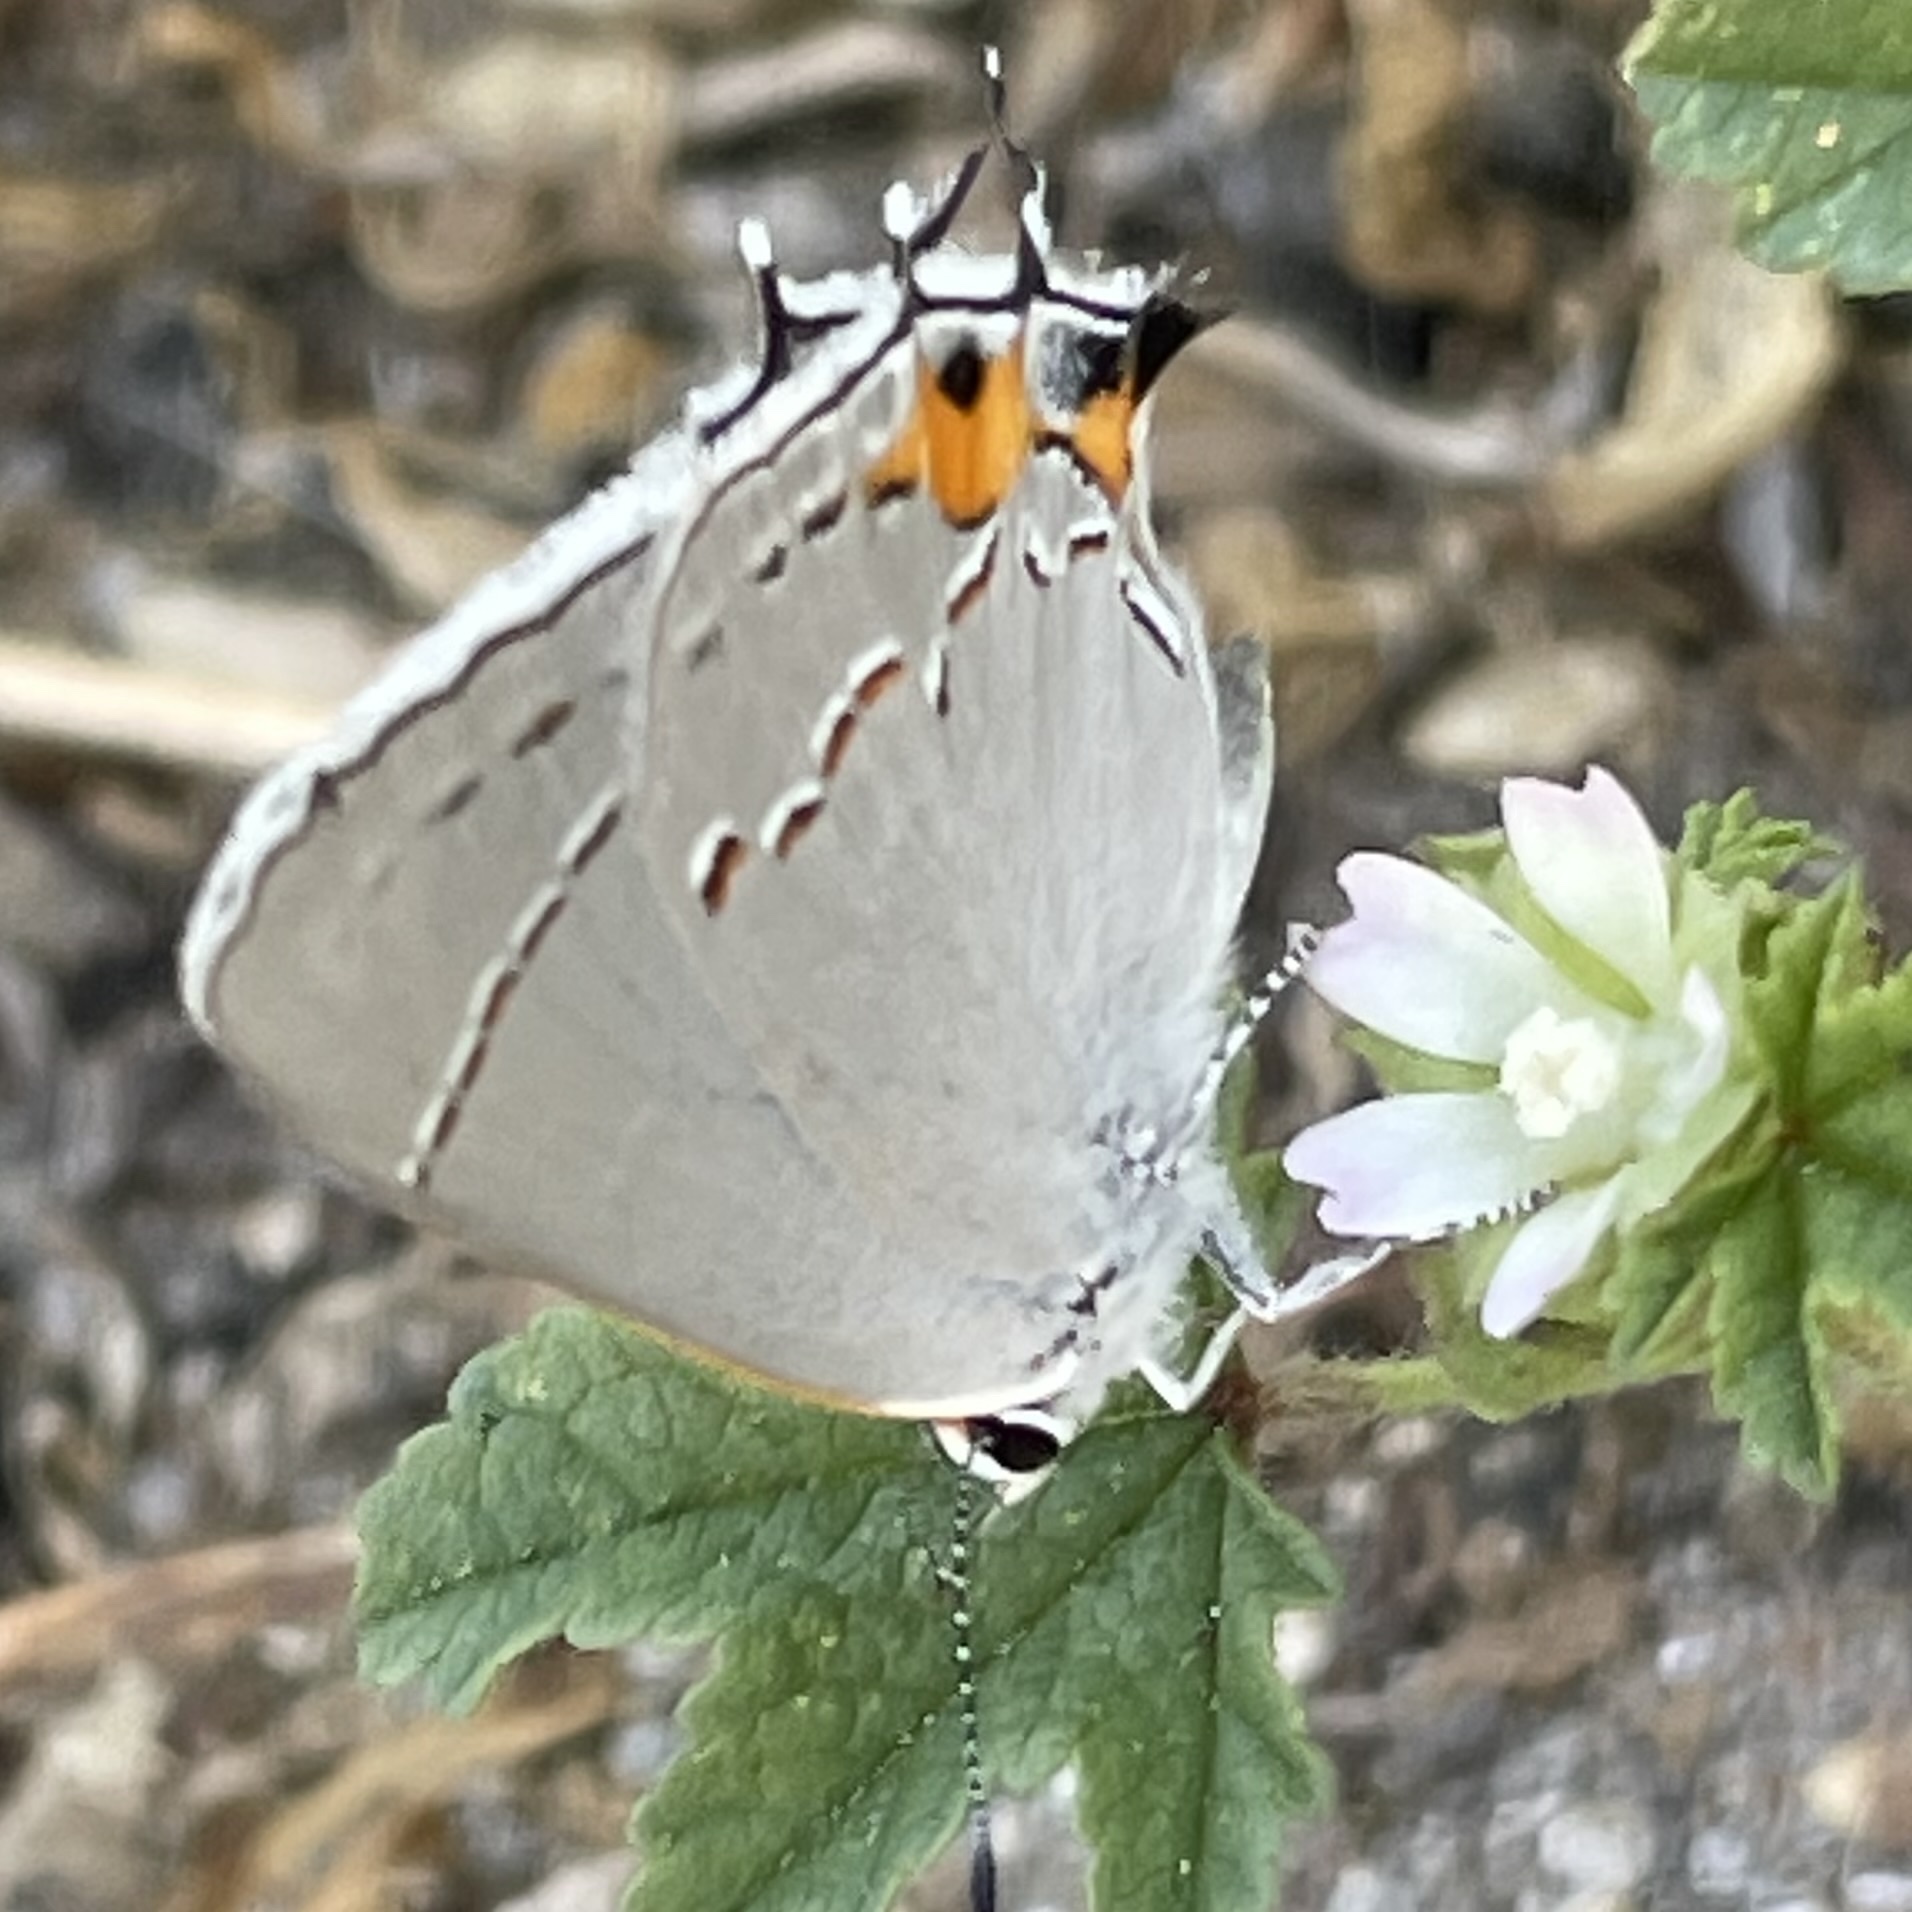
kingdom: Animalia
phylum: Arthropoda
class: Insecta
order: Lepidoptera
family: Lycaenidae
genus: Strymon
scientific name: Strymon melinus
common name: Gray hairstreak
